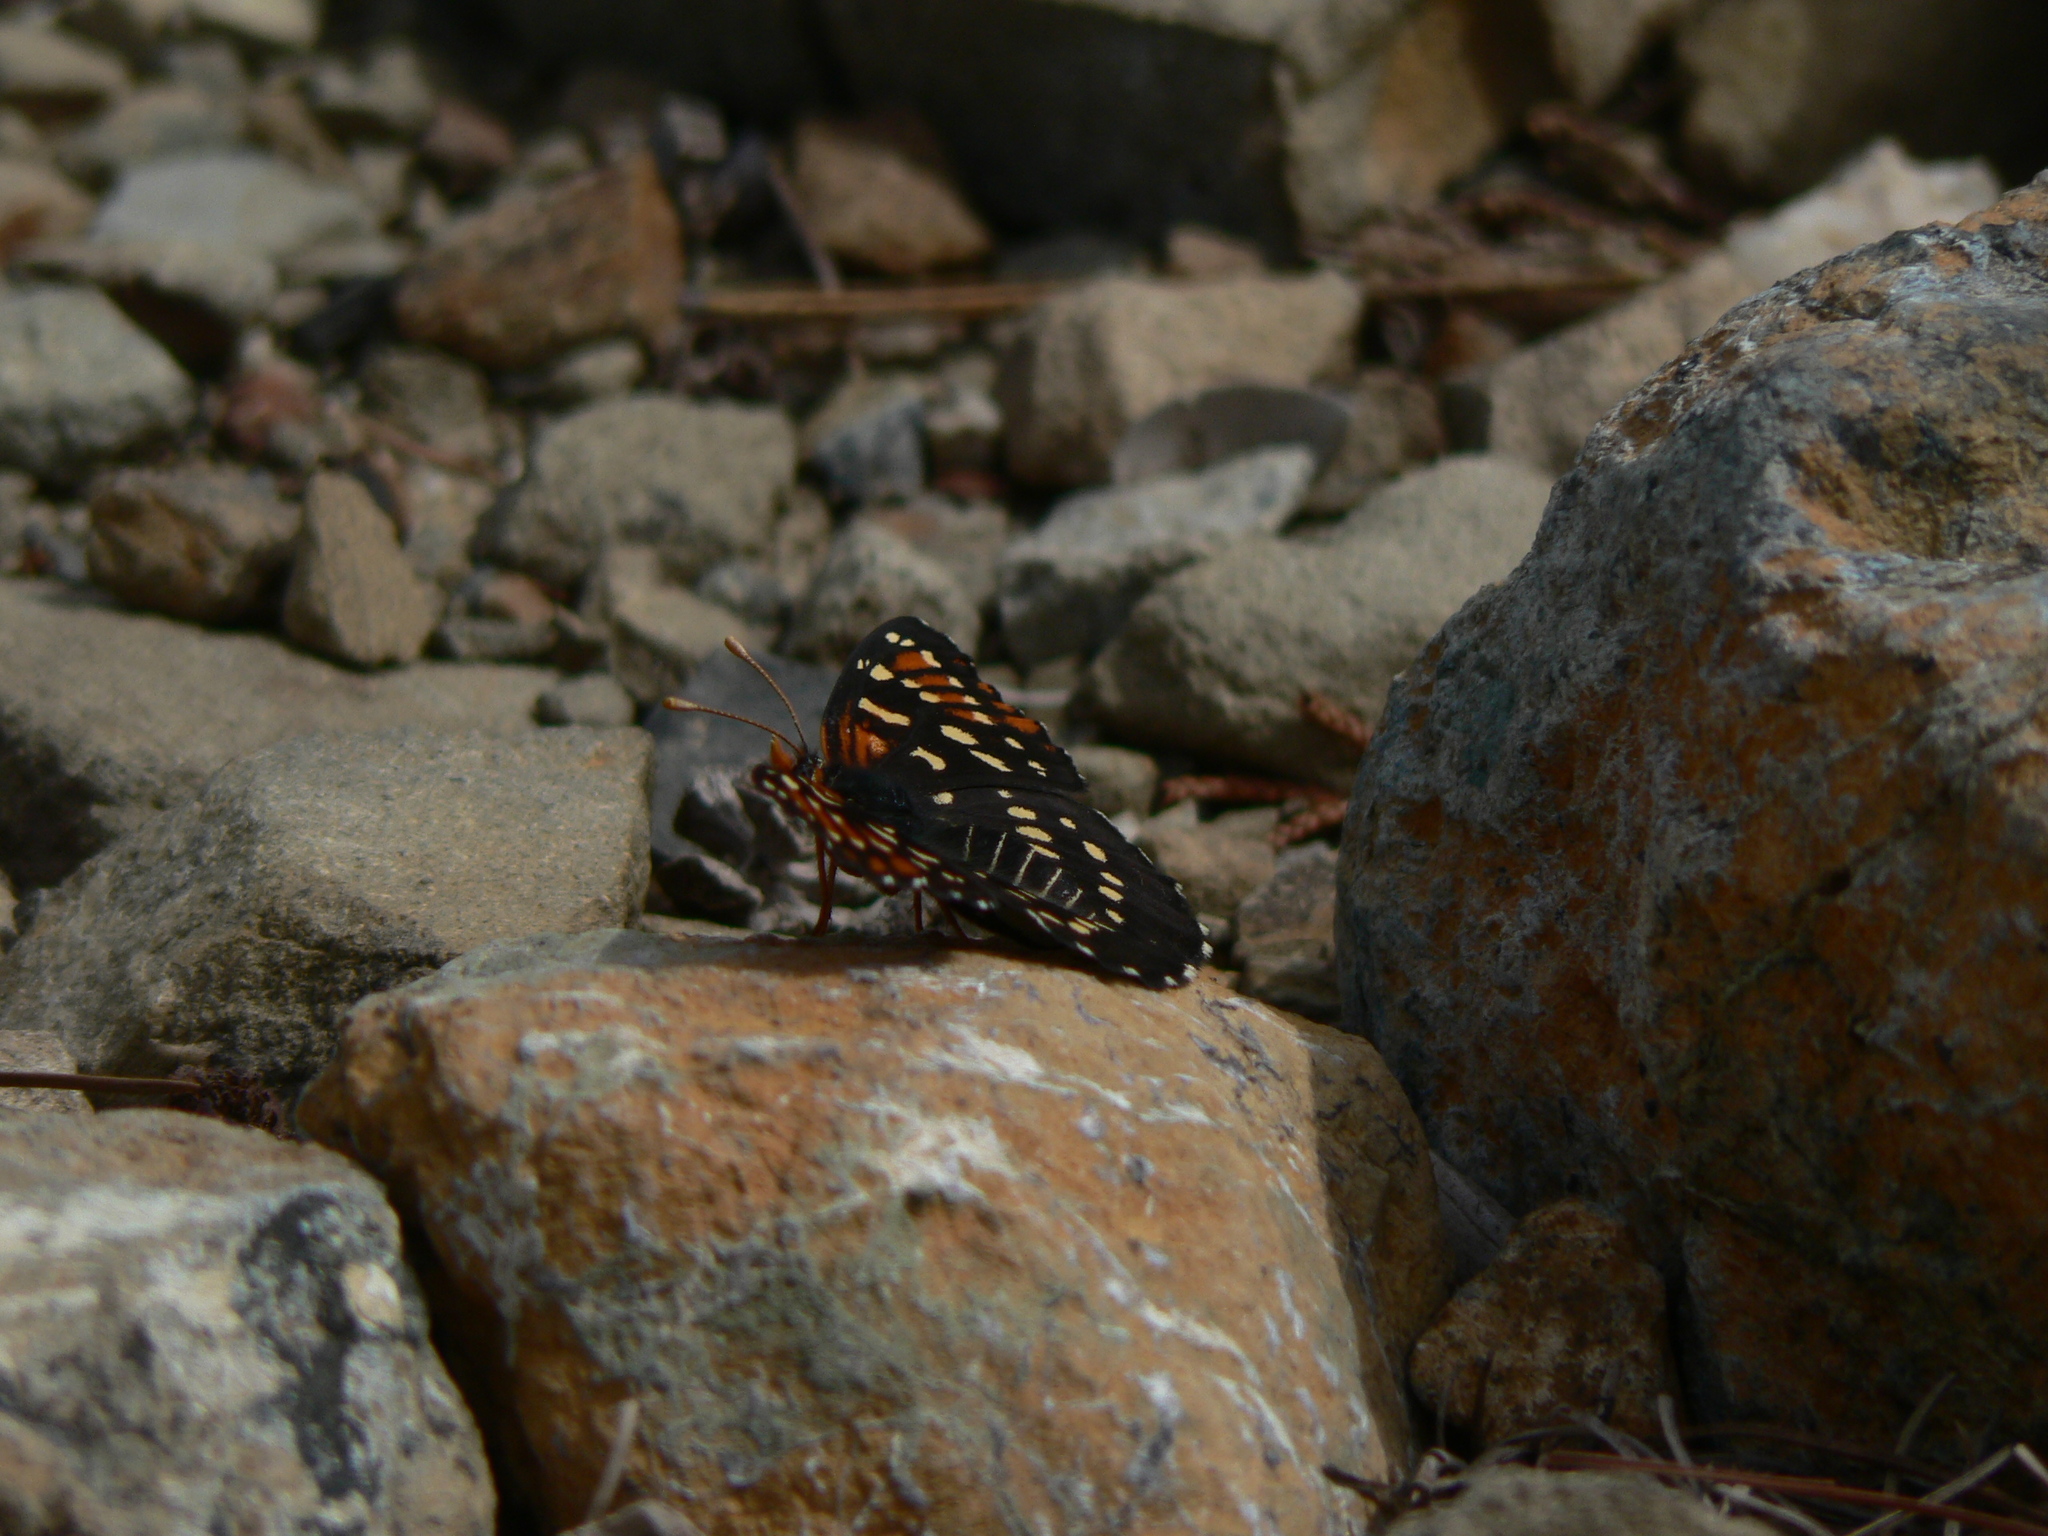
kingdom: Animalia
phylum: Arthropoda
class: Insecta
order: Lepidoptera
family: Nymphalidae
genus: Thessalia
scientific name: Thessalia leanira
